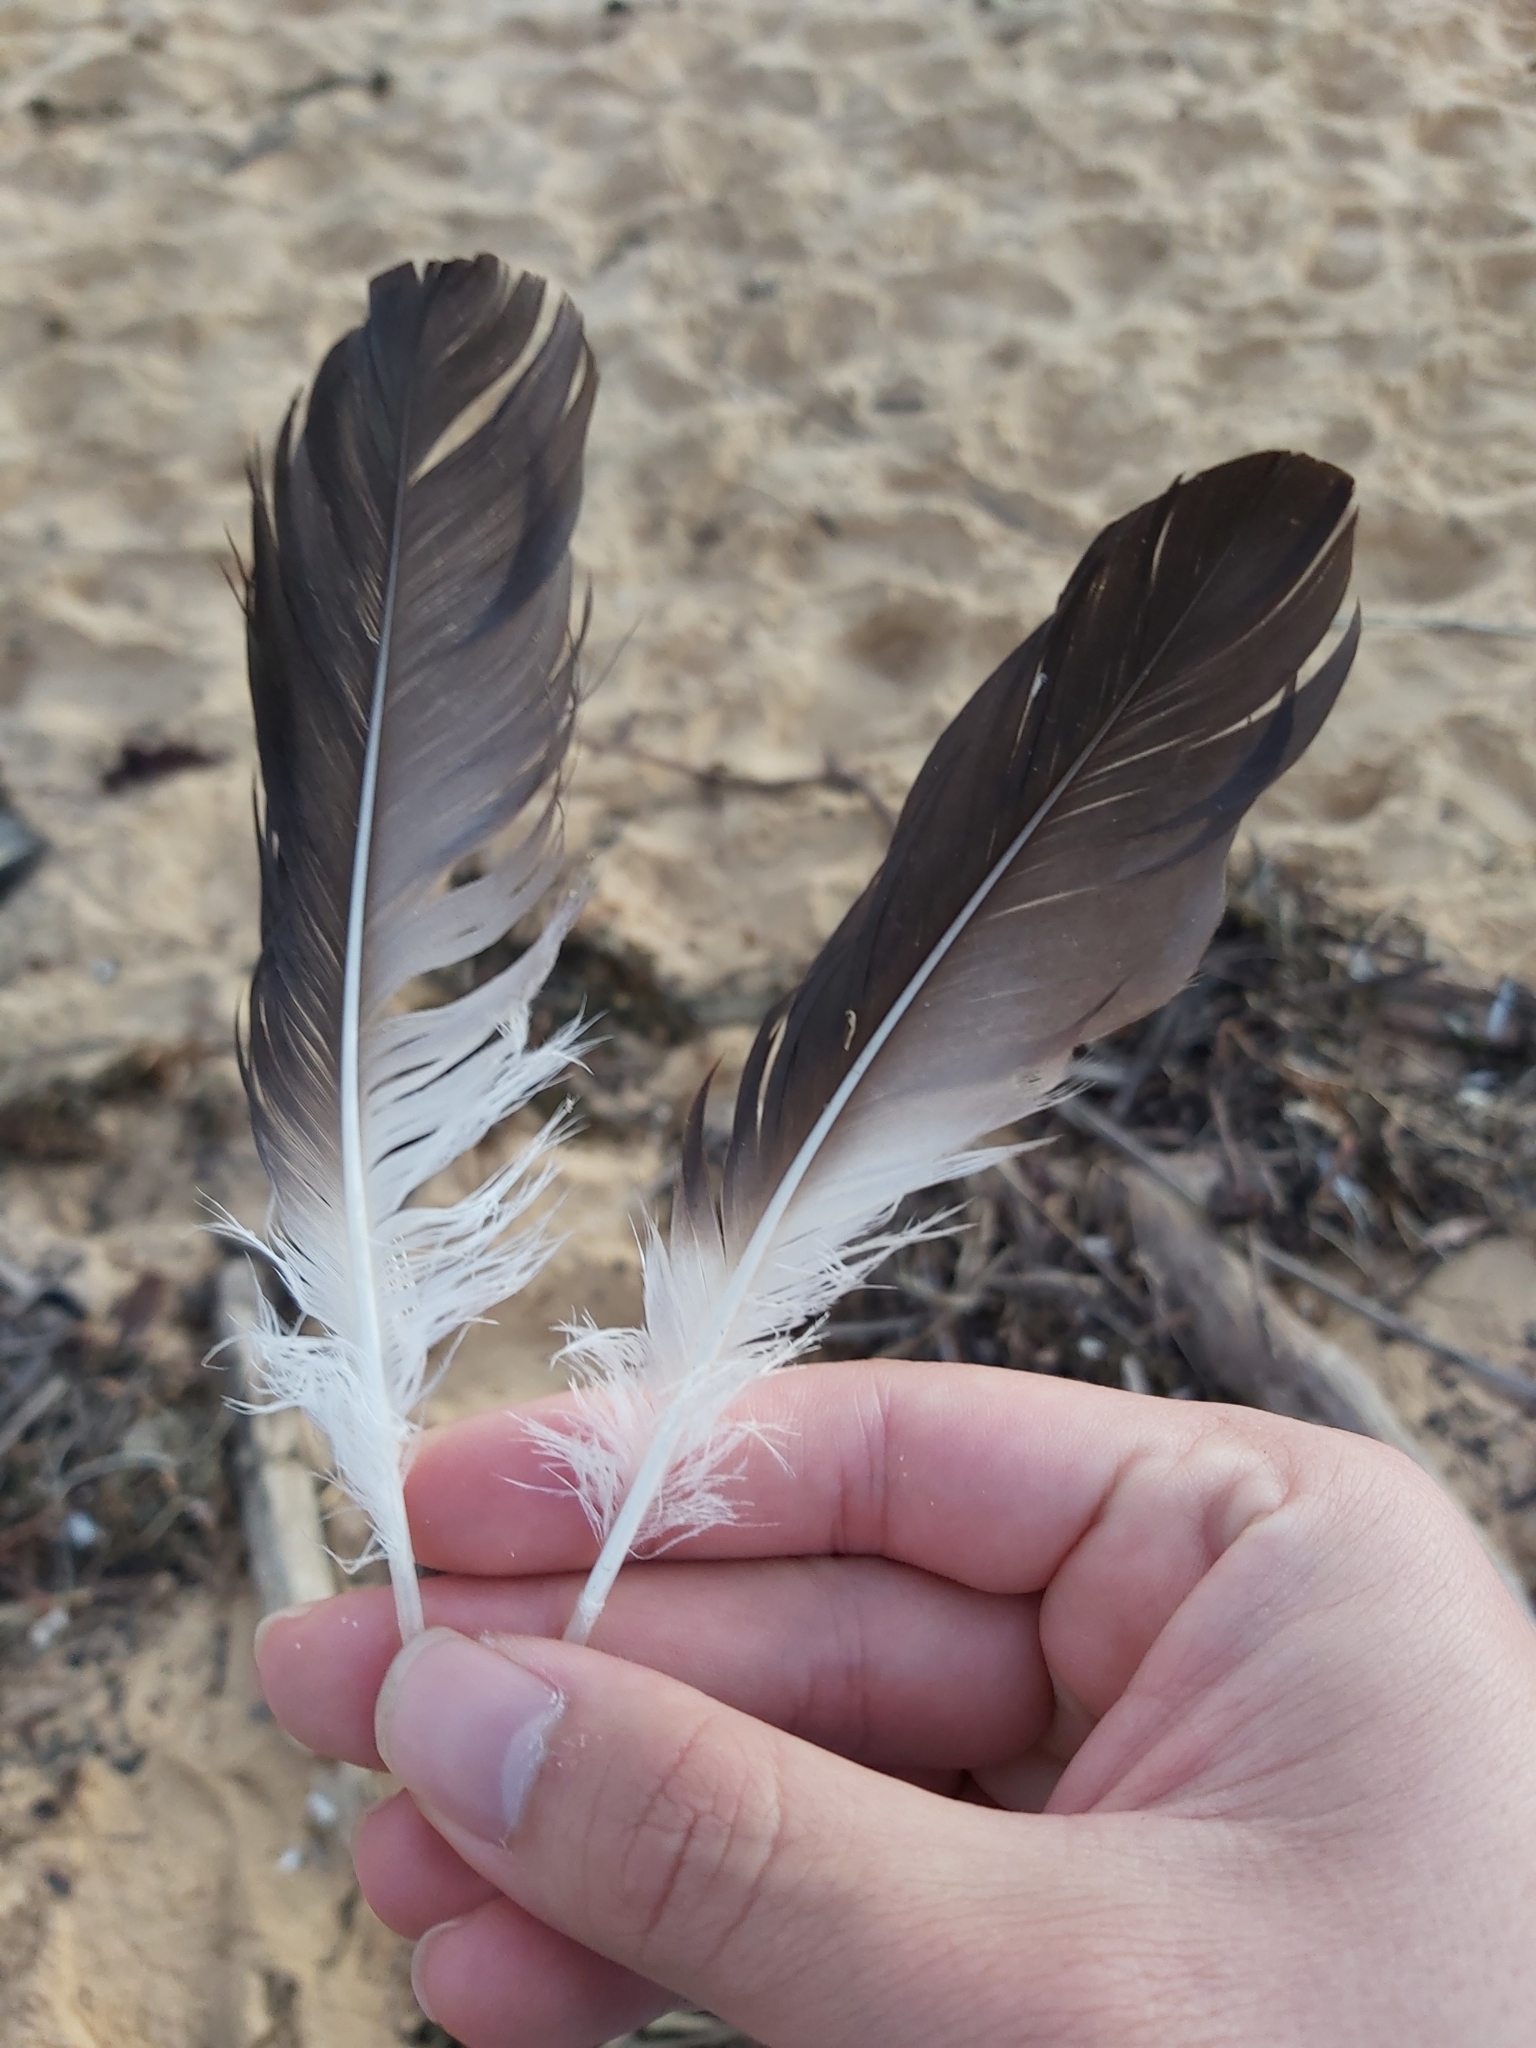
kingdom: Animalia
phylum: Chordata
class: Aves
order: Suliformes
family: Sulidae
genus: Morus
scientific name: Morus serrator
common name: Australasian gannet
